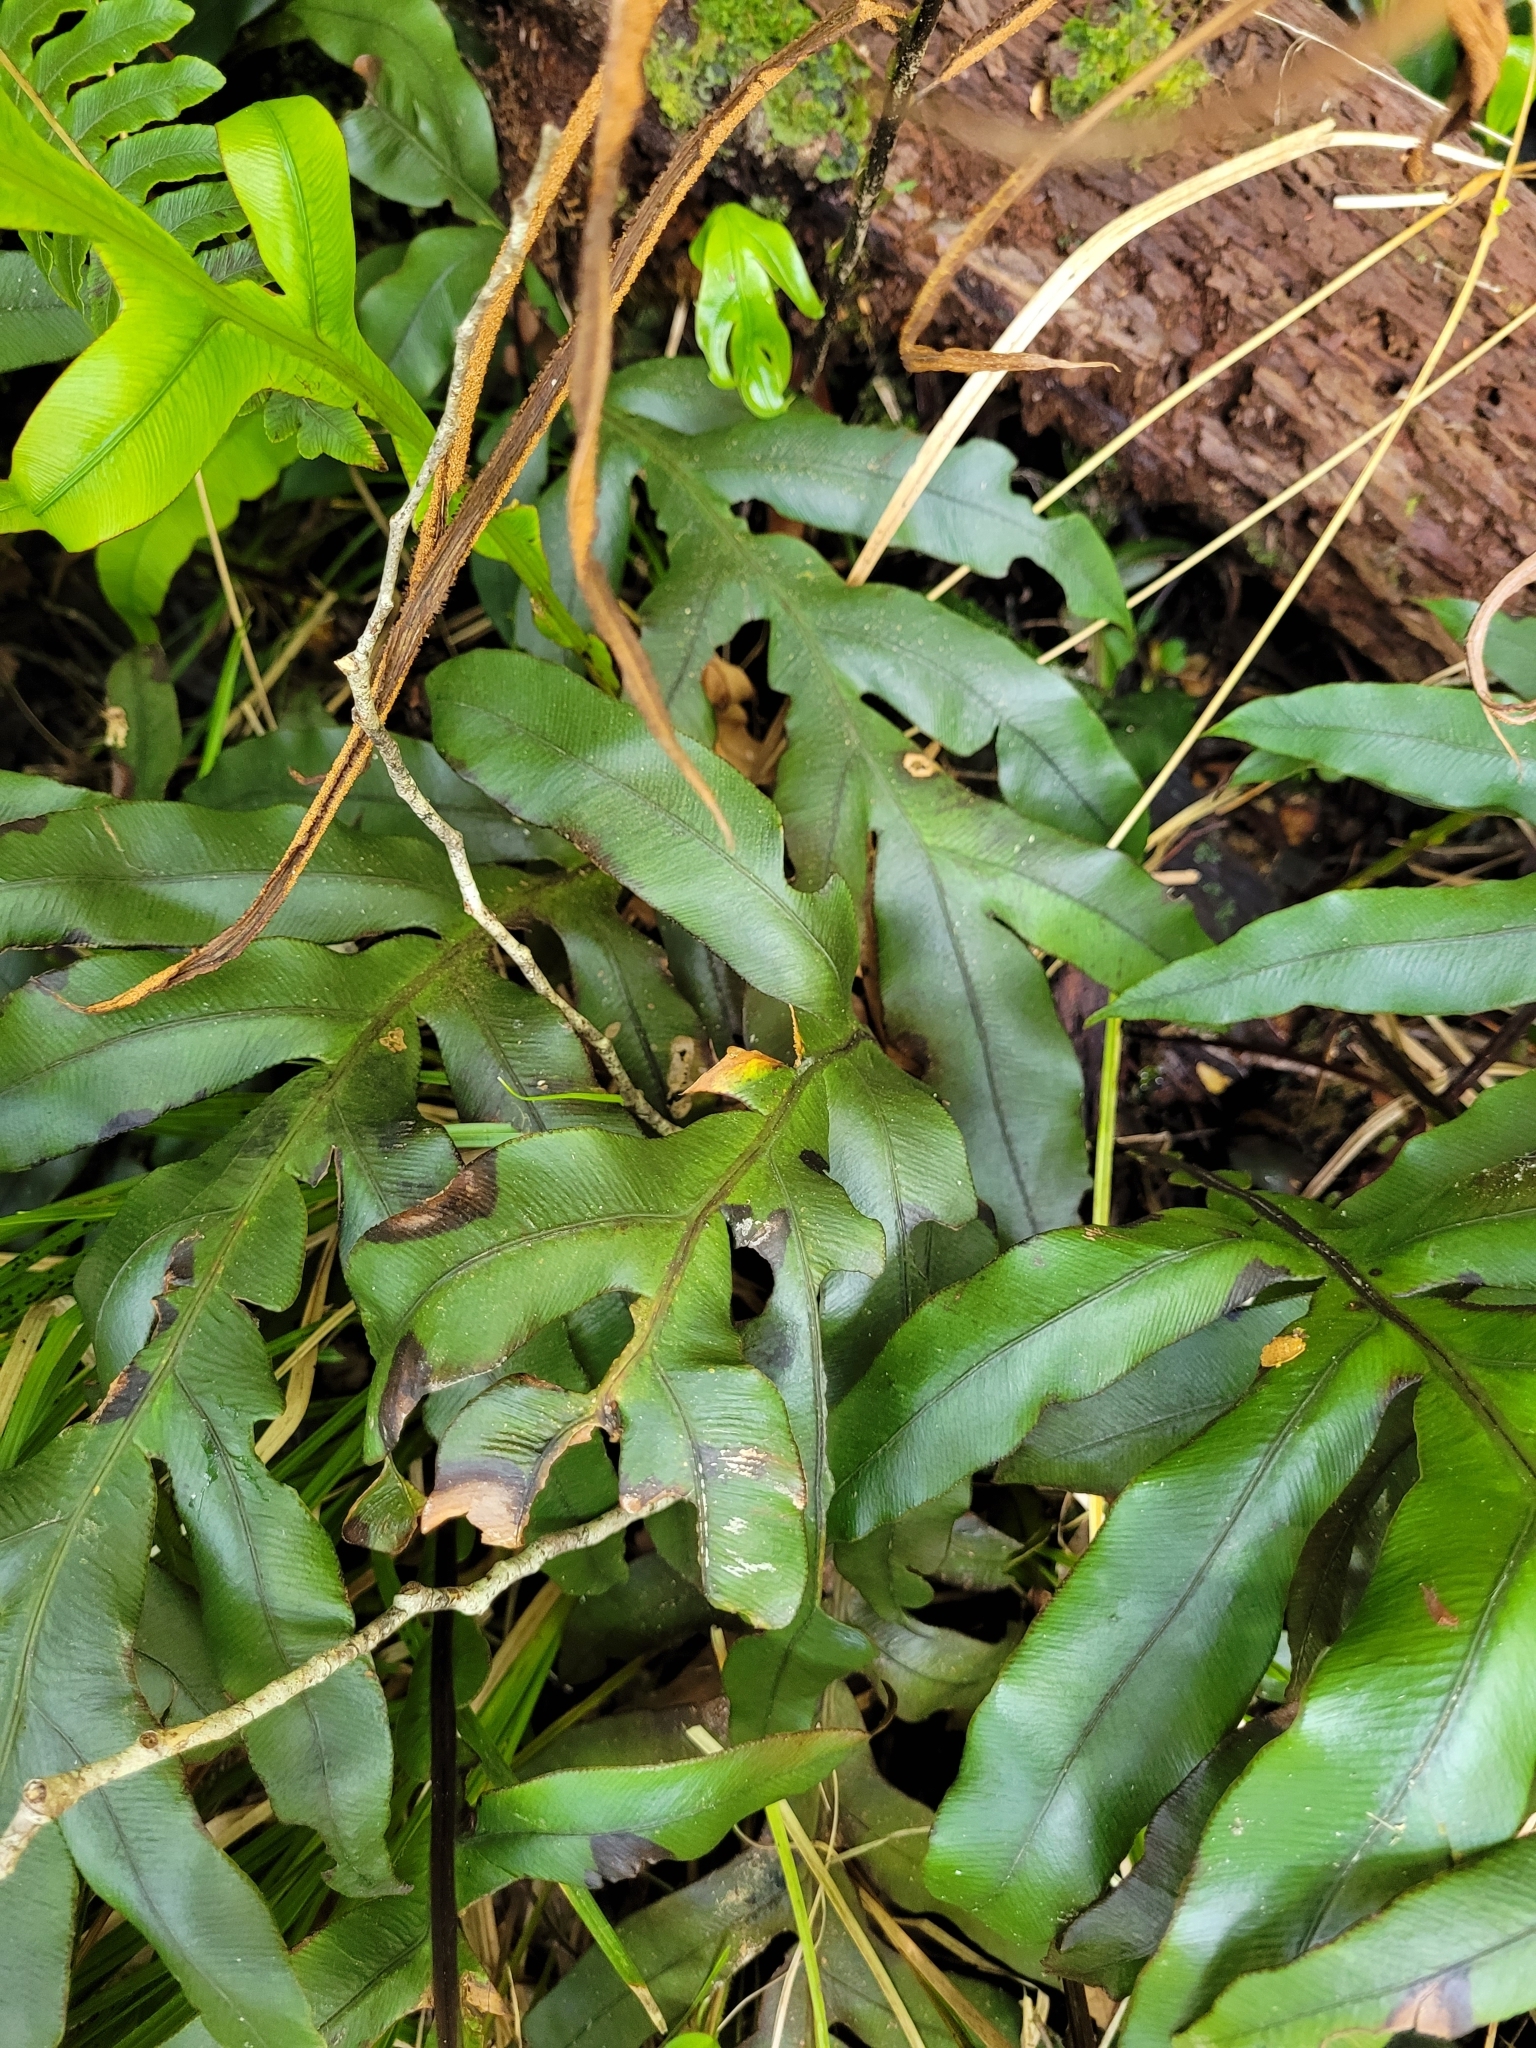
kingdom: Plantae
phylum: Tracheophyta
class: Polypodiopsida
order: Polypodiales
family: Blechnaceae
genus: Austroblechnum
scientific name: Austroblechnum colensoi
